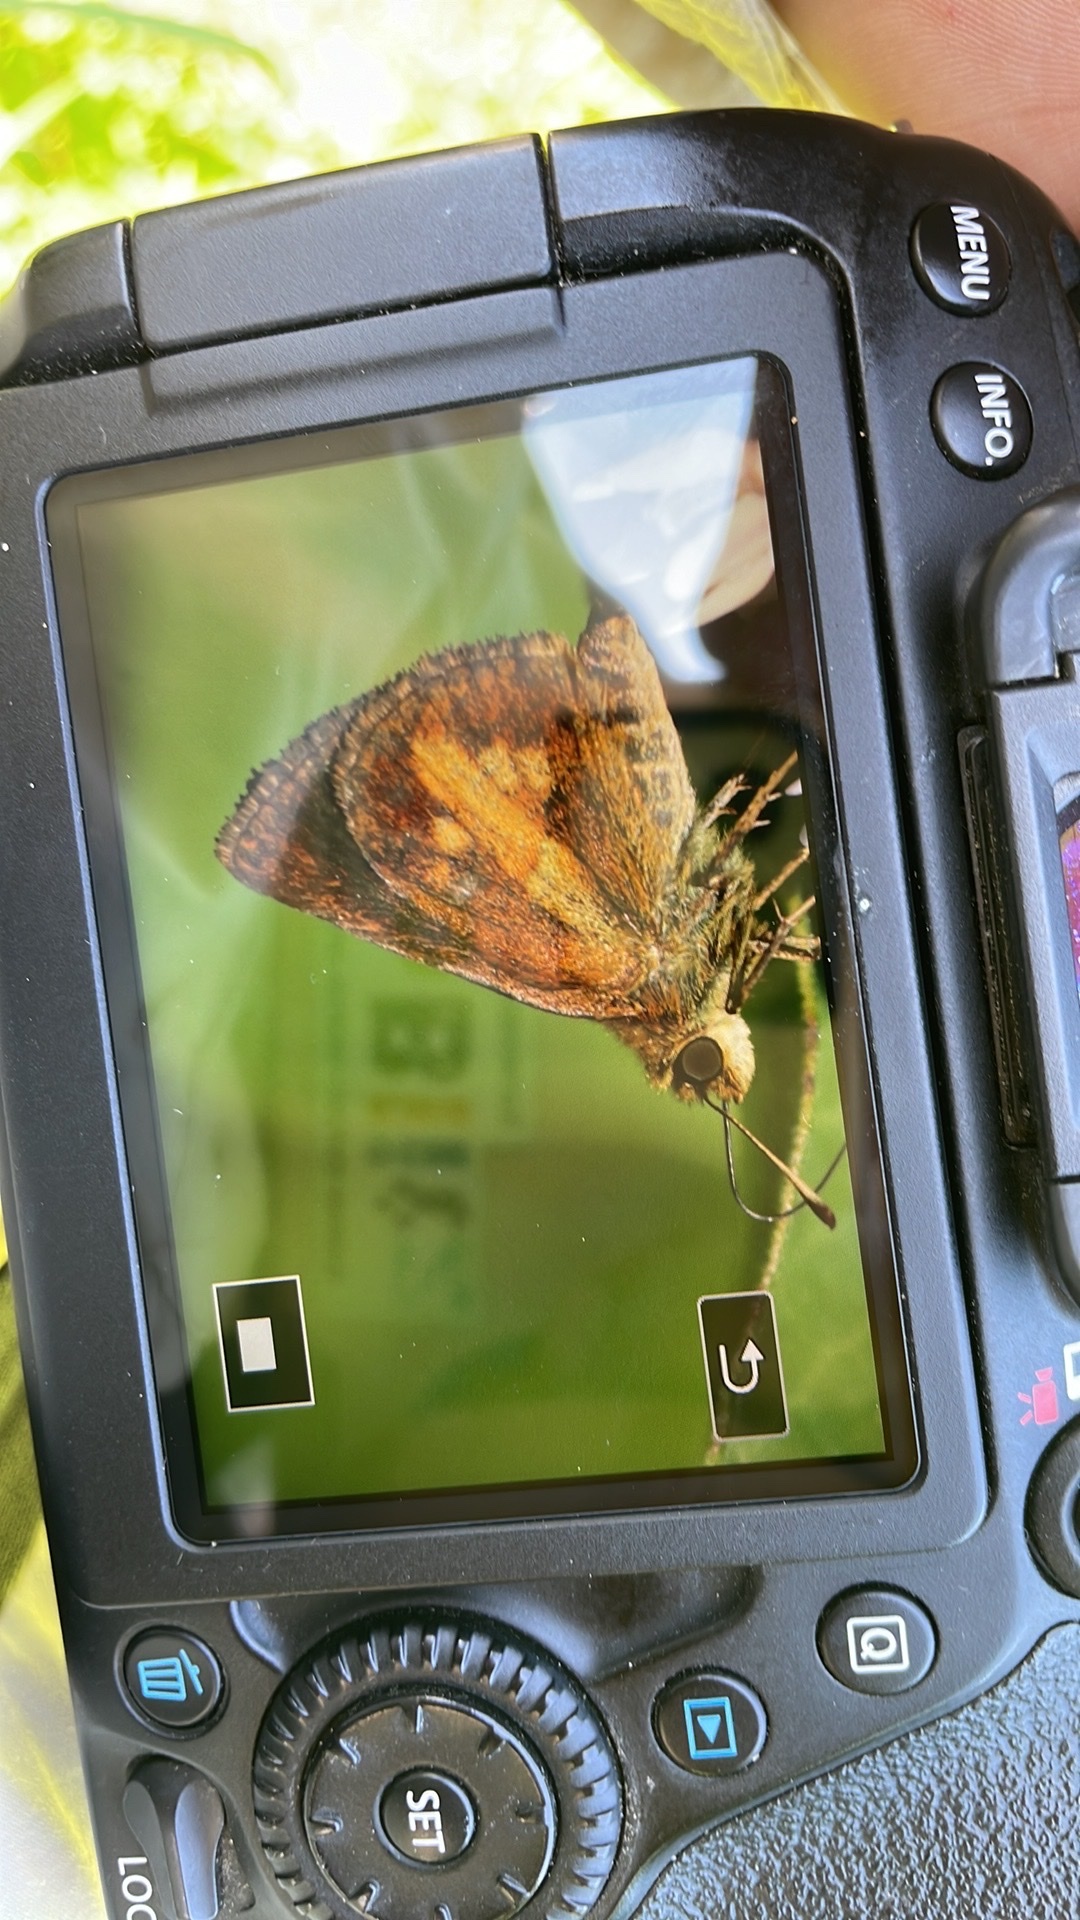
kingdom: Animalia
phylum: Arthropoda
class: Insecta
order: Lepidoptera
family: Hesperiidae
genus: Poanes
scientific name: Poanes massasoit
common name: Mulberrywing
